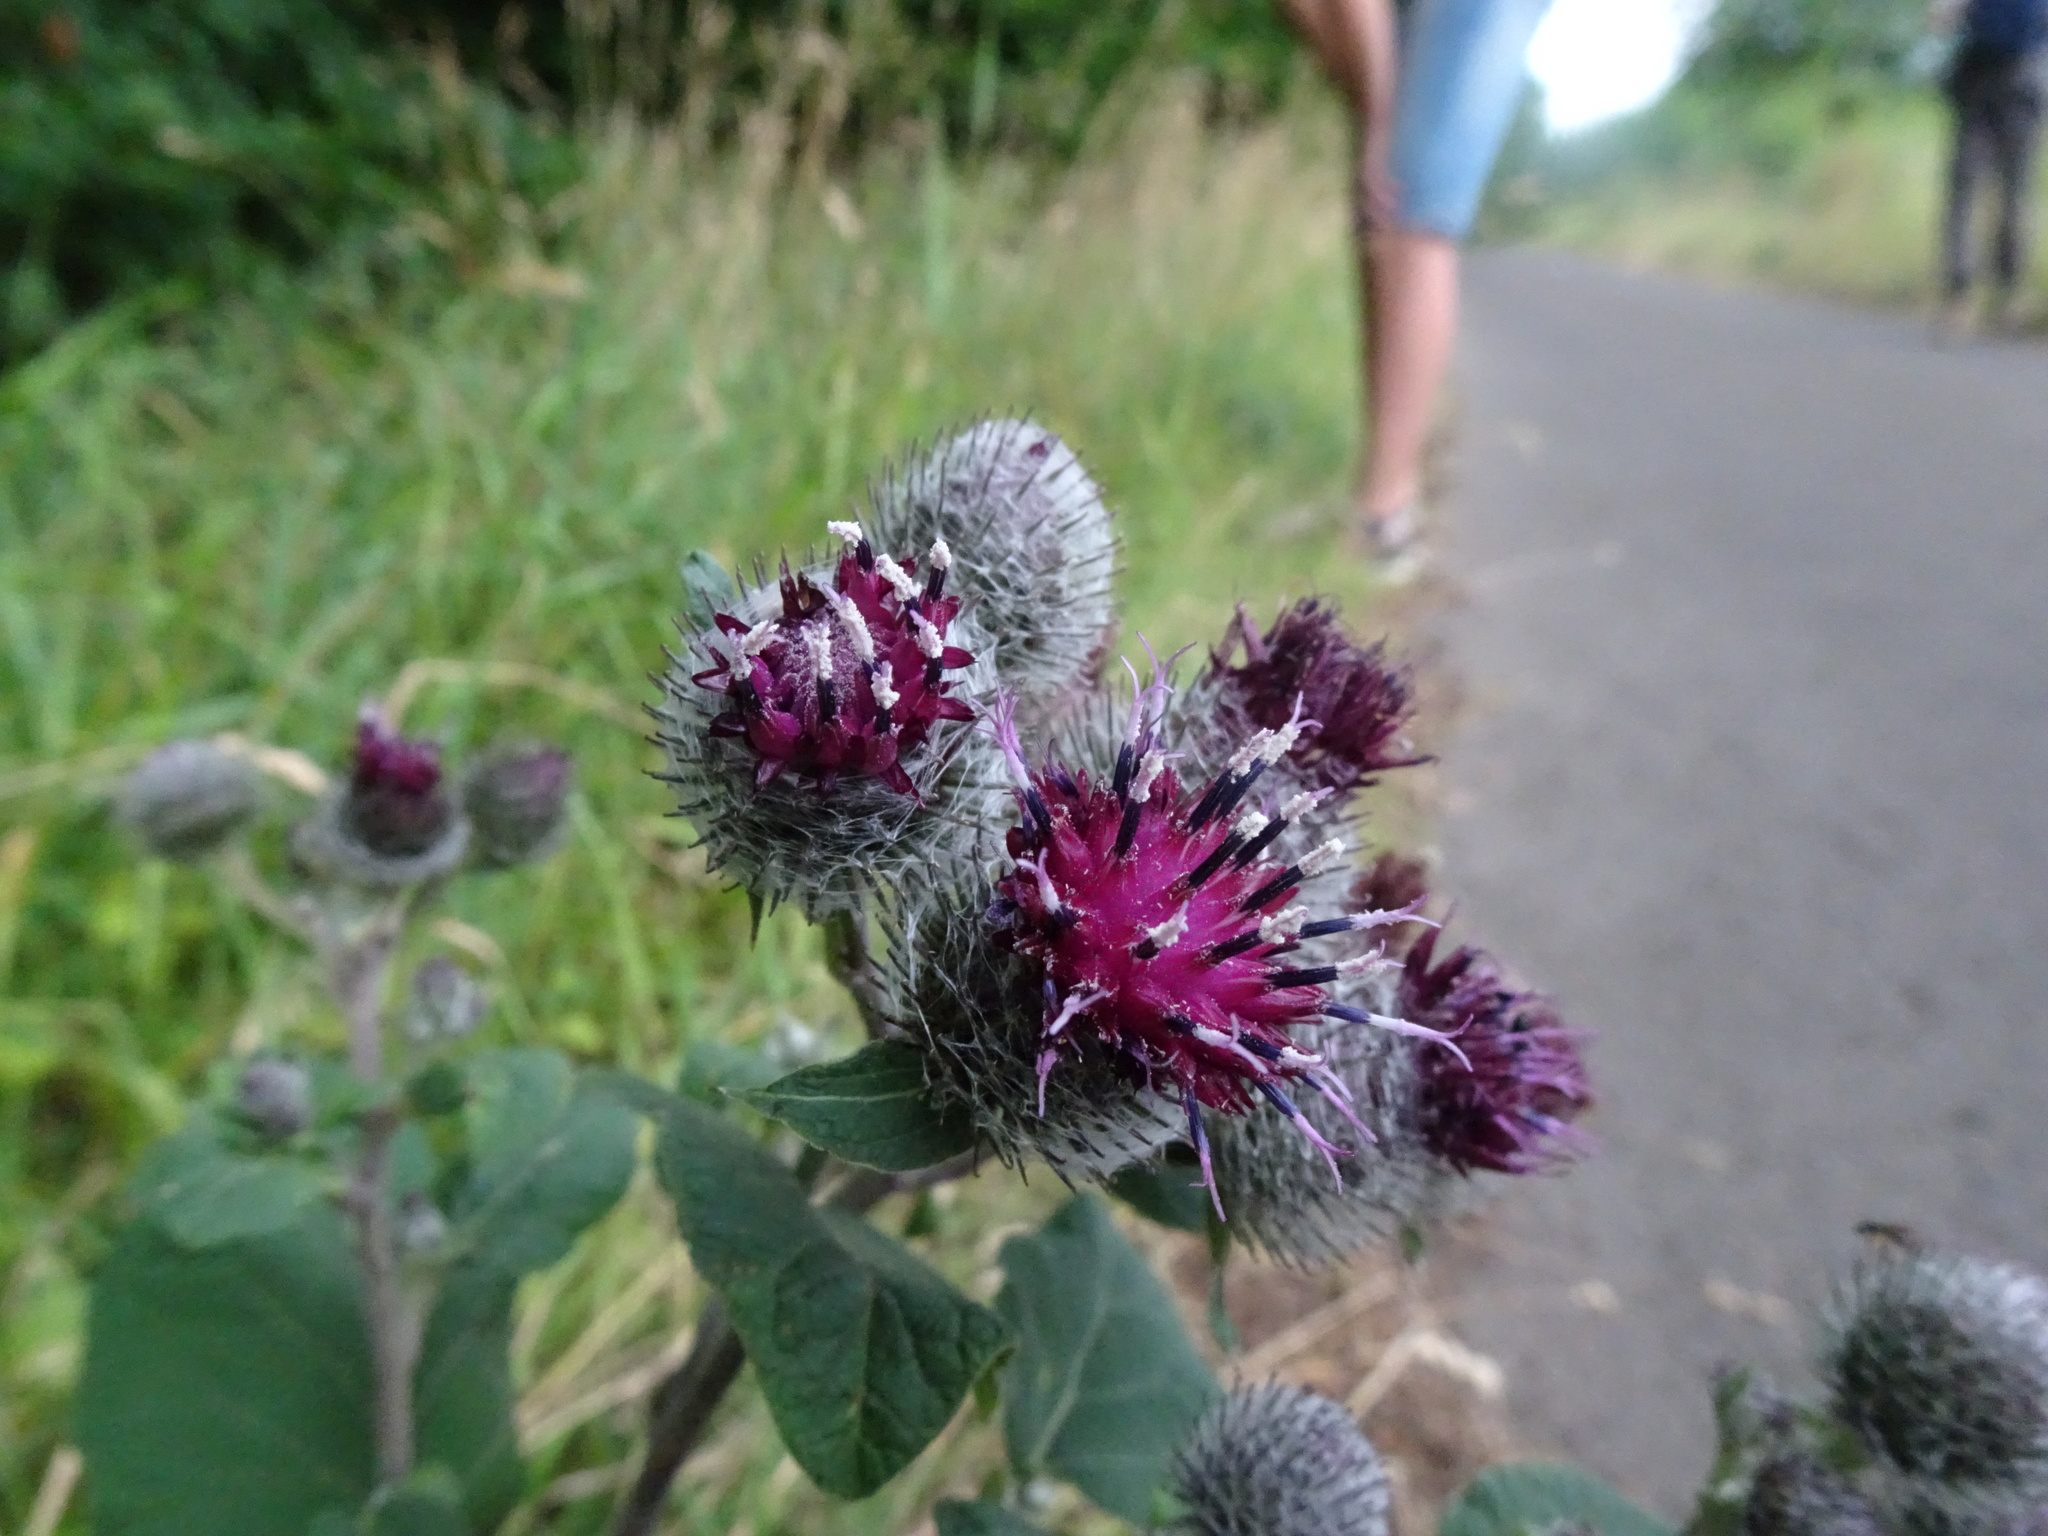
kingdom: Plantae
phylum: Tracheophyta
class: Magnoliopsida
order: Asterales
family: Asteraceae
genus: Arctium
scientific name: Arctium tomentosum
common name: Woolly burdock
